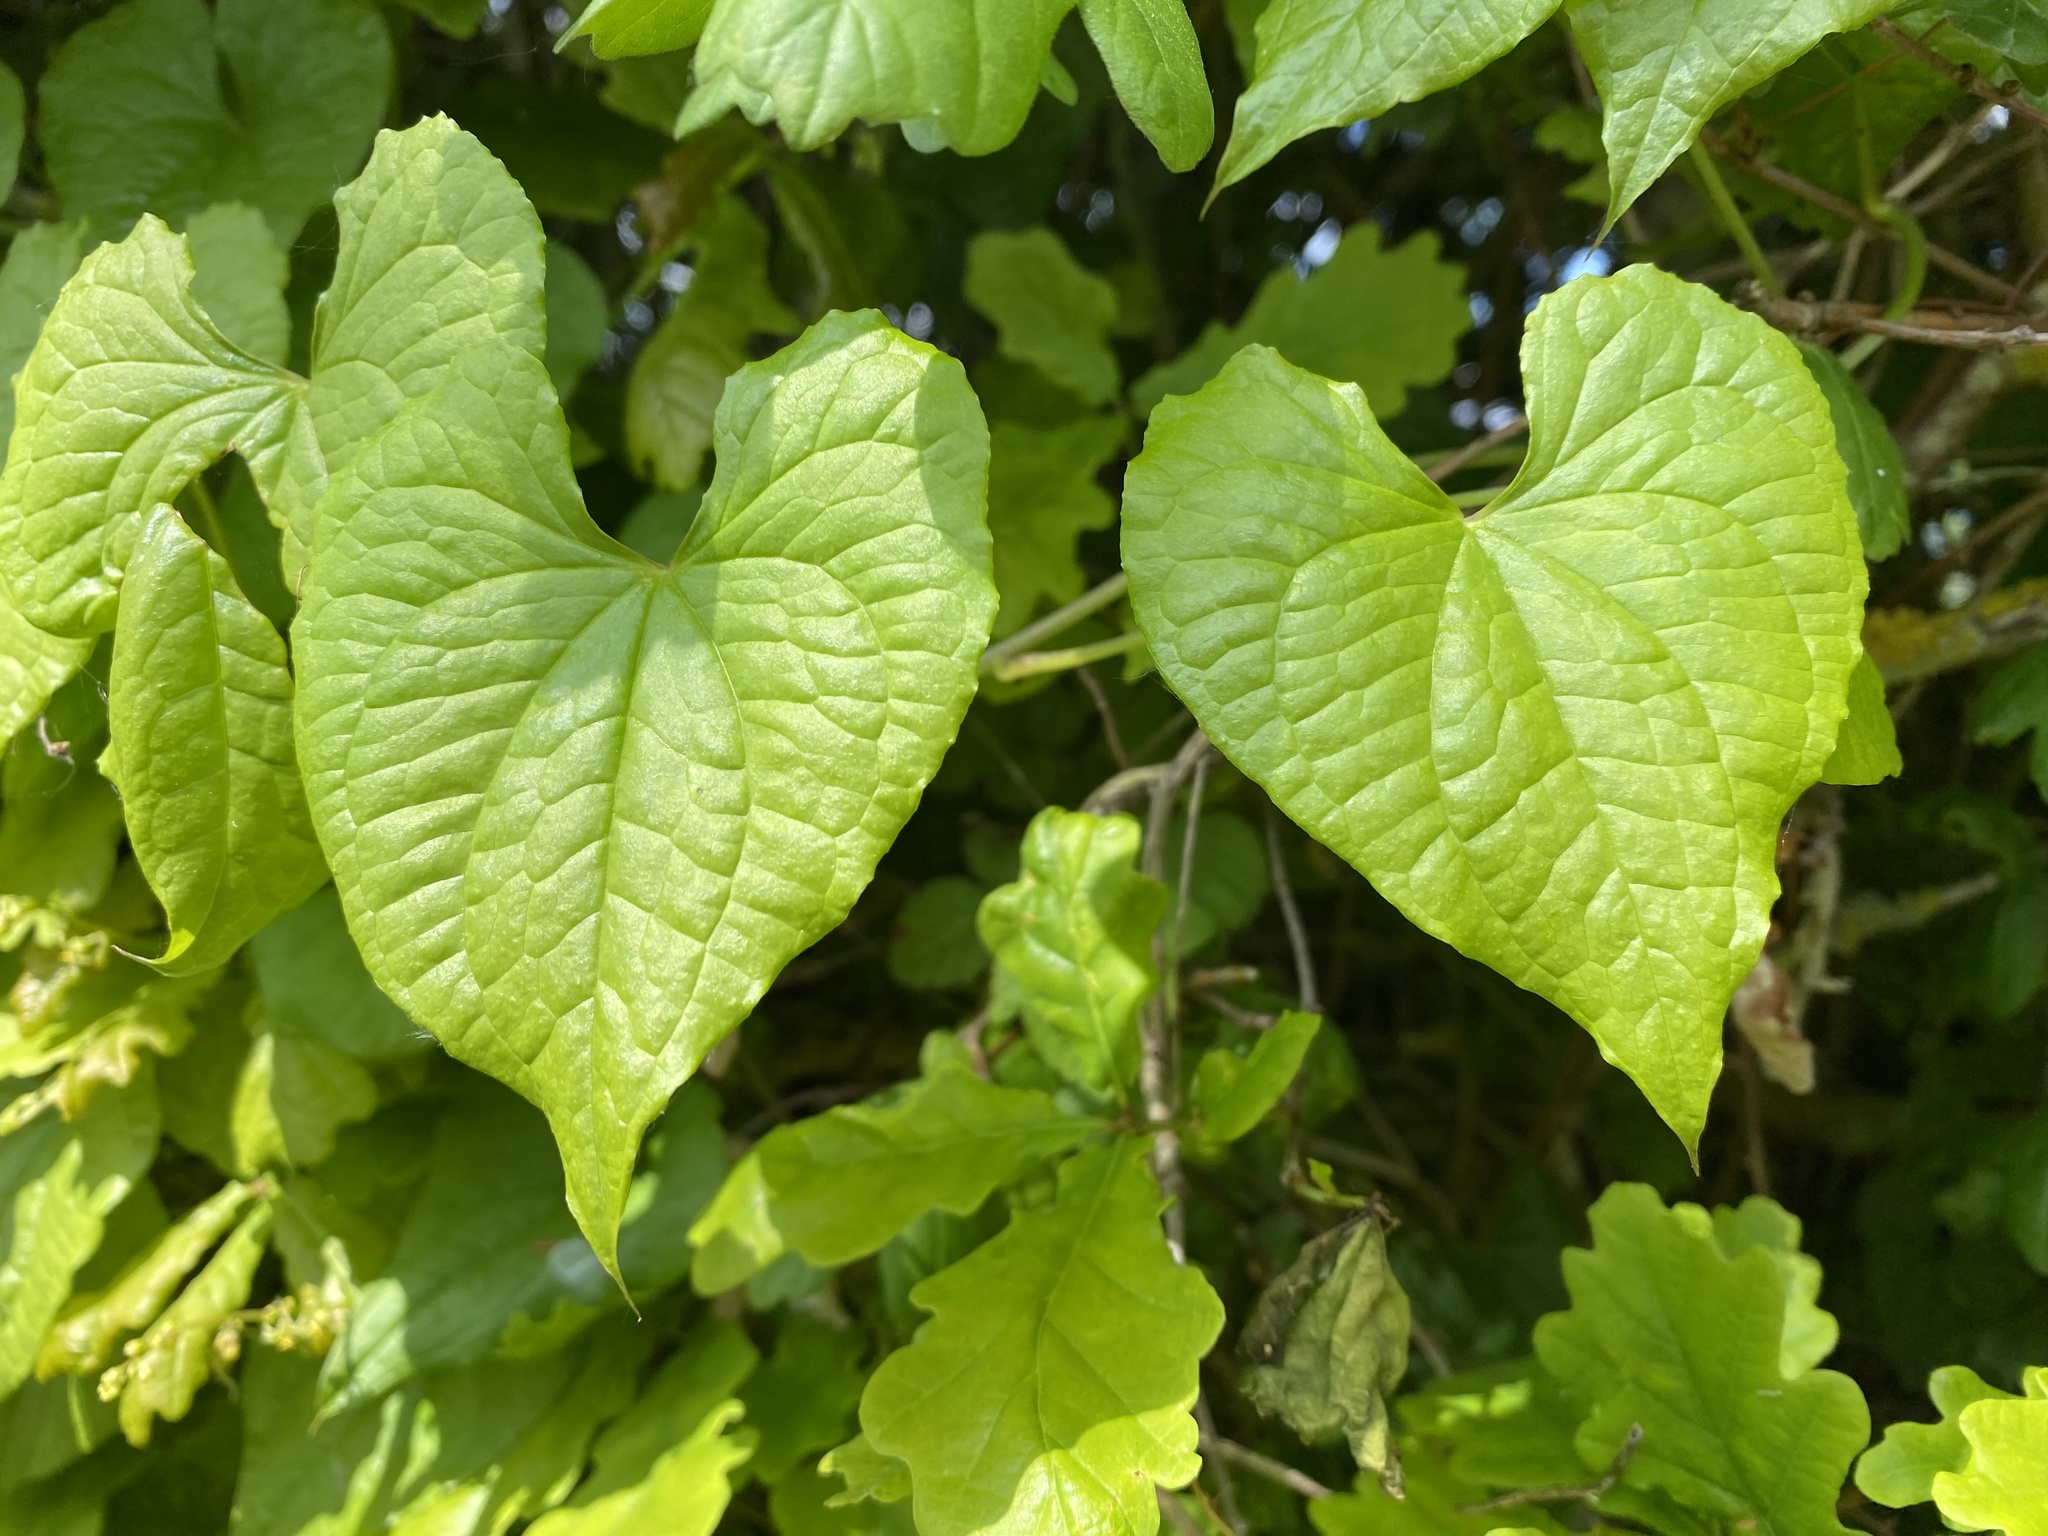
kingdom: Plantae
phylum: Tracheophyta
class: Liliopsida
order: Dioscoreales
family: Dioscoreaceae
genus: Dioscorea
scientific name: Dioscorea communis
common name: Black-bindweed
